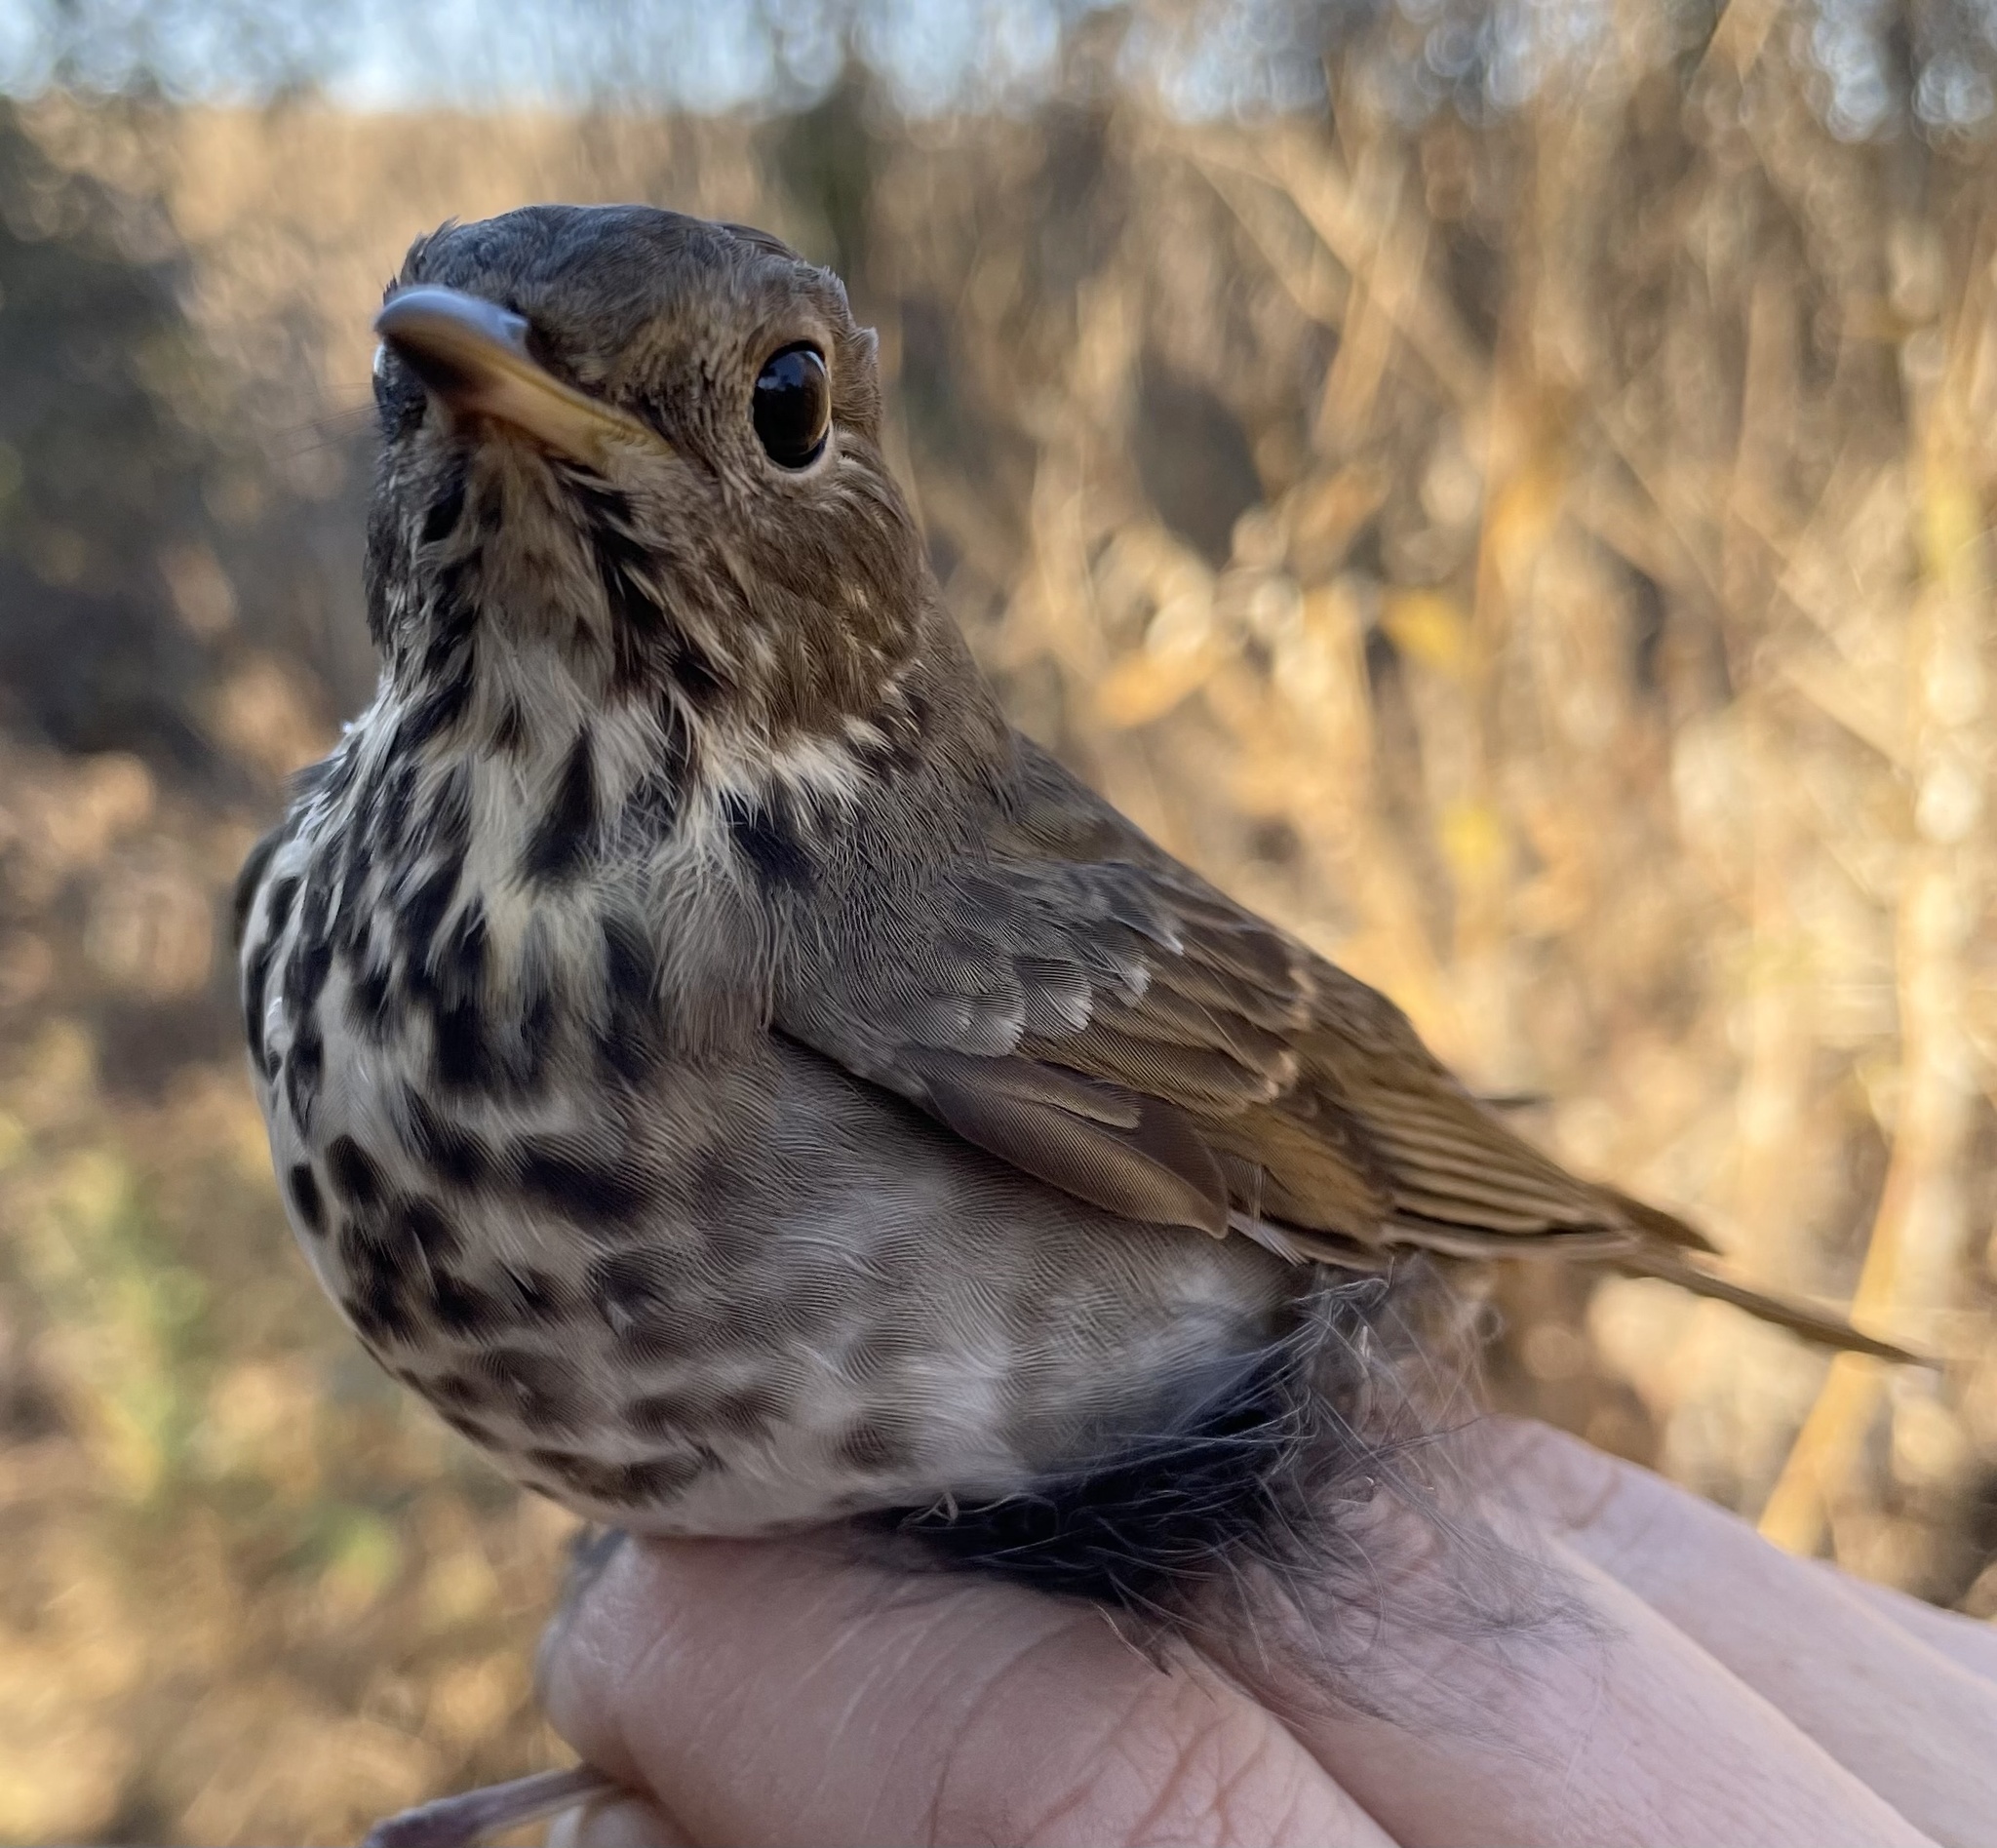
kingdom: Animalia
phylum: Chordata
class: Aves
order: Passeriformes
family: Turdidae
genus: Catharus
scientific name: Catharus guttatus
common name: Hermit thrush
